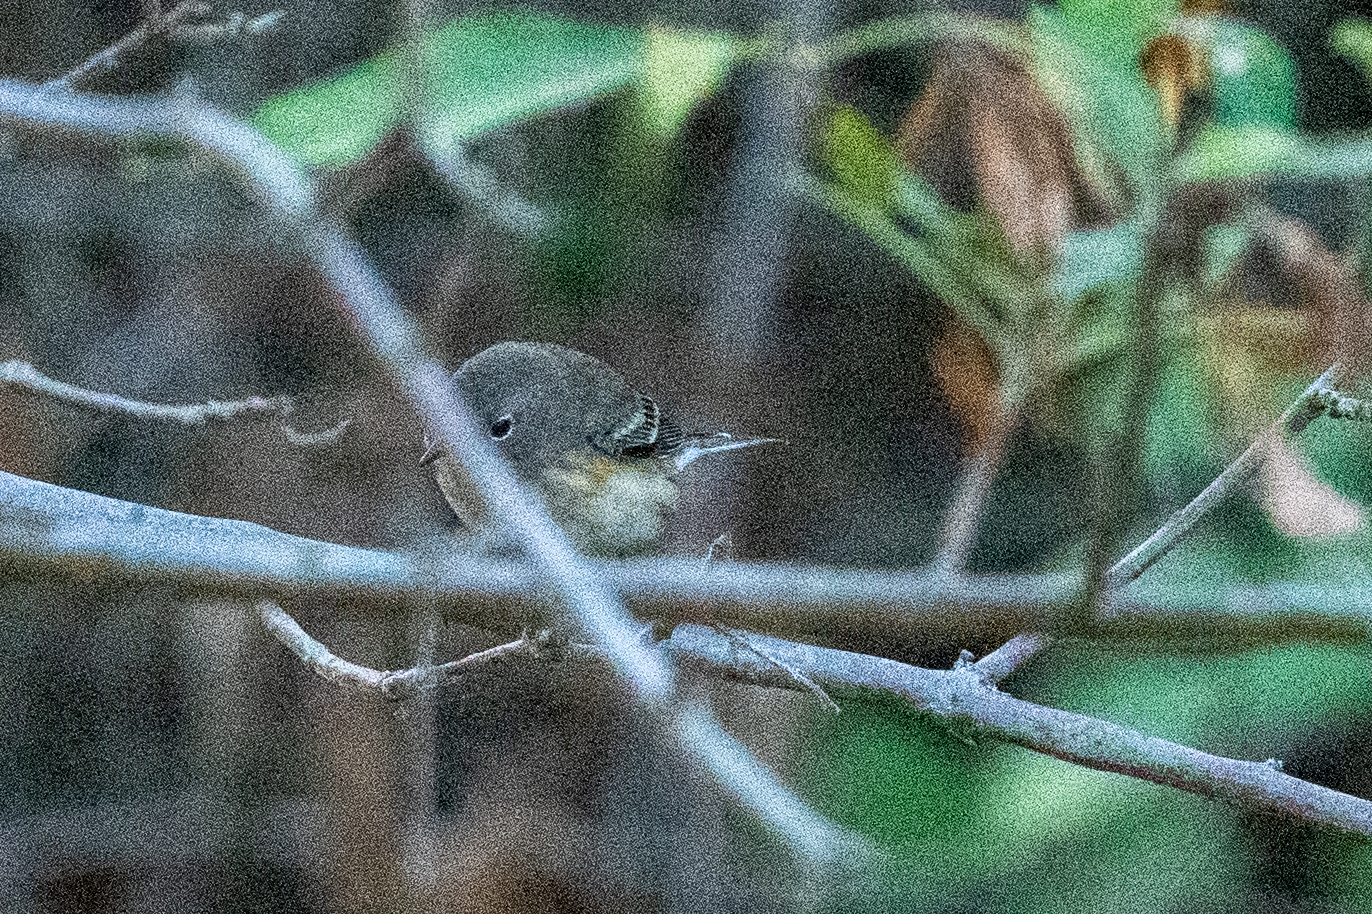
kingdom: Animalia
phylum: Chordata
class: Aves
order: Passeriformes
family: Parulidae
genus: Setophaga
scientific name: Setophaga coronata
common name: Myrtle warbler
